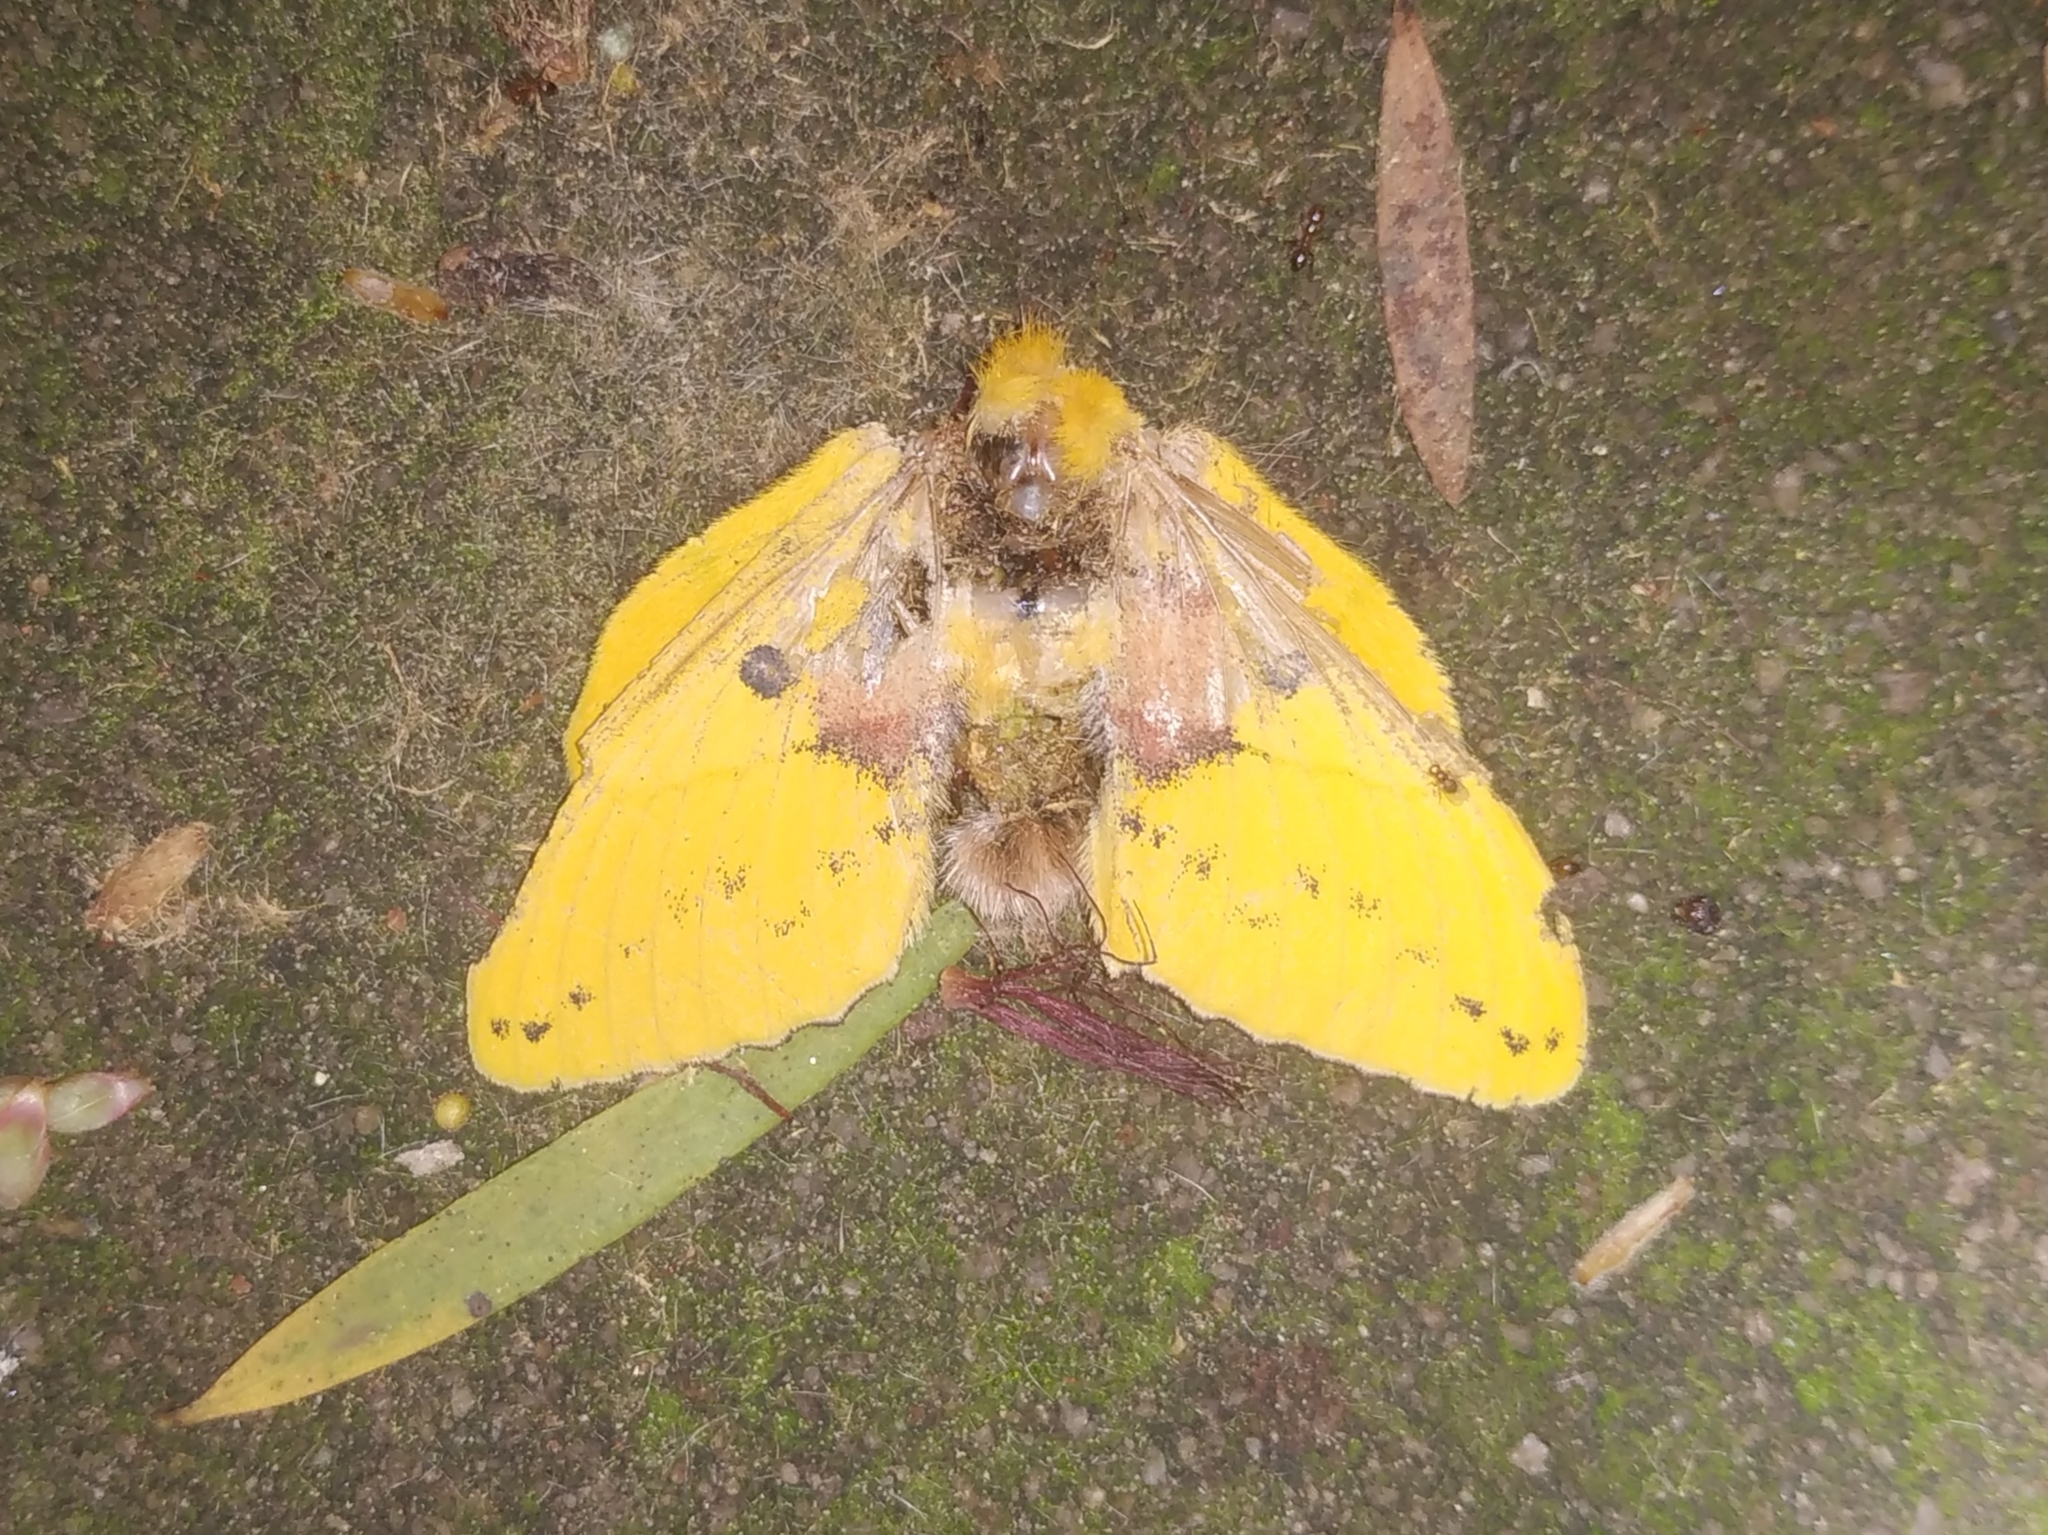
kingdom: Animalia
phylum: Arthropoda
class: Insecta
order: Lepidoptera
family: Lasiocampidae
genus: Trabala
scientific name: Trabala vishnou
